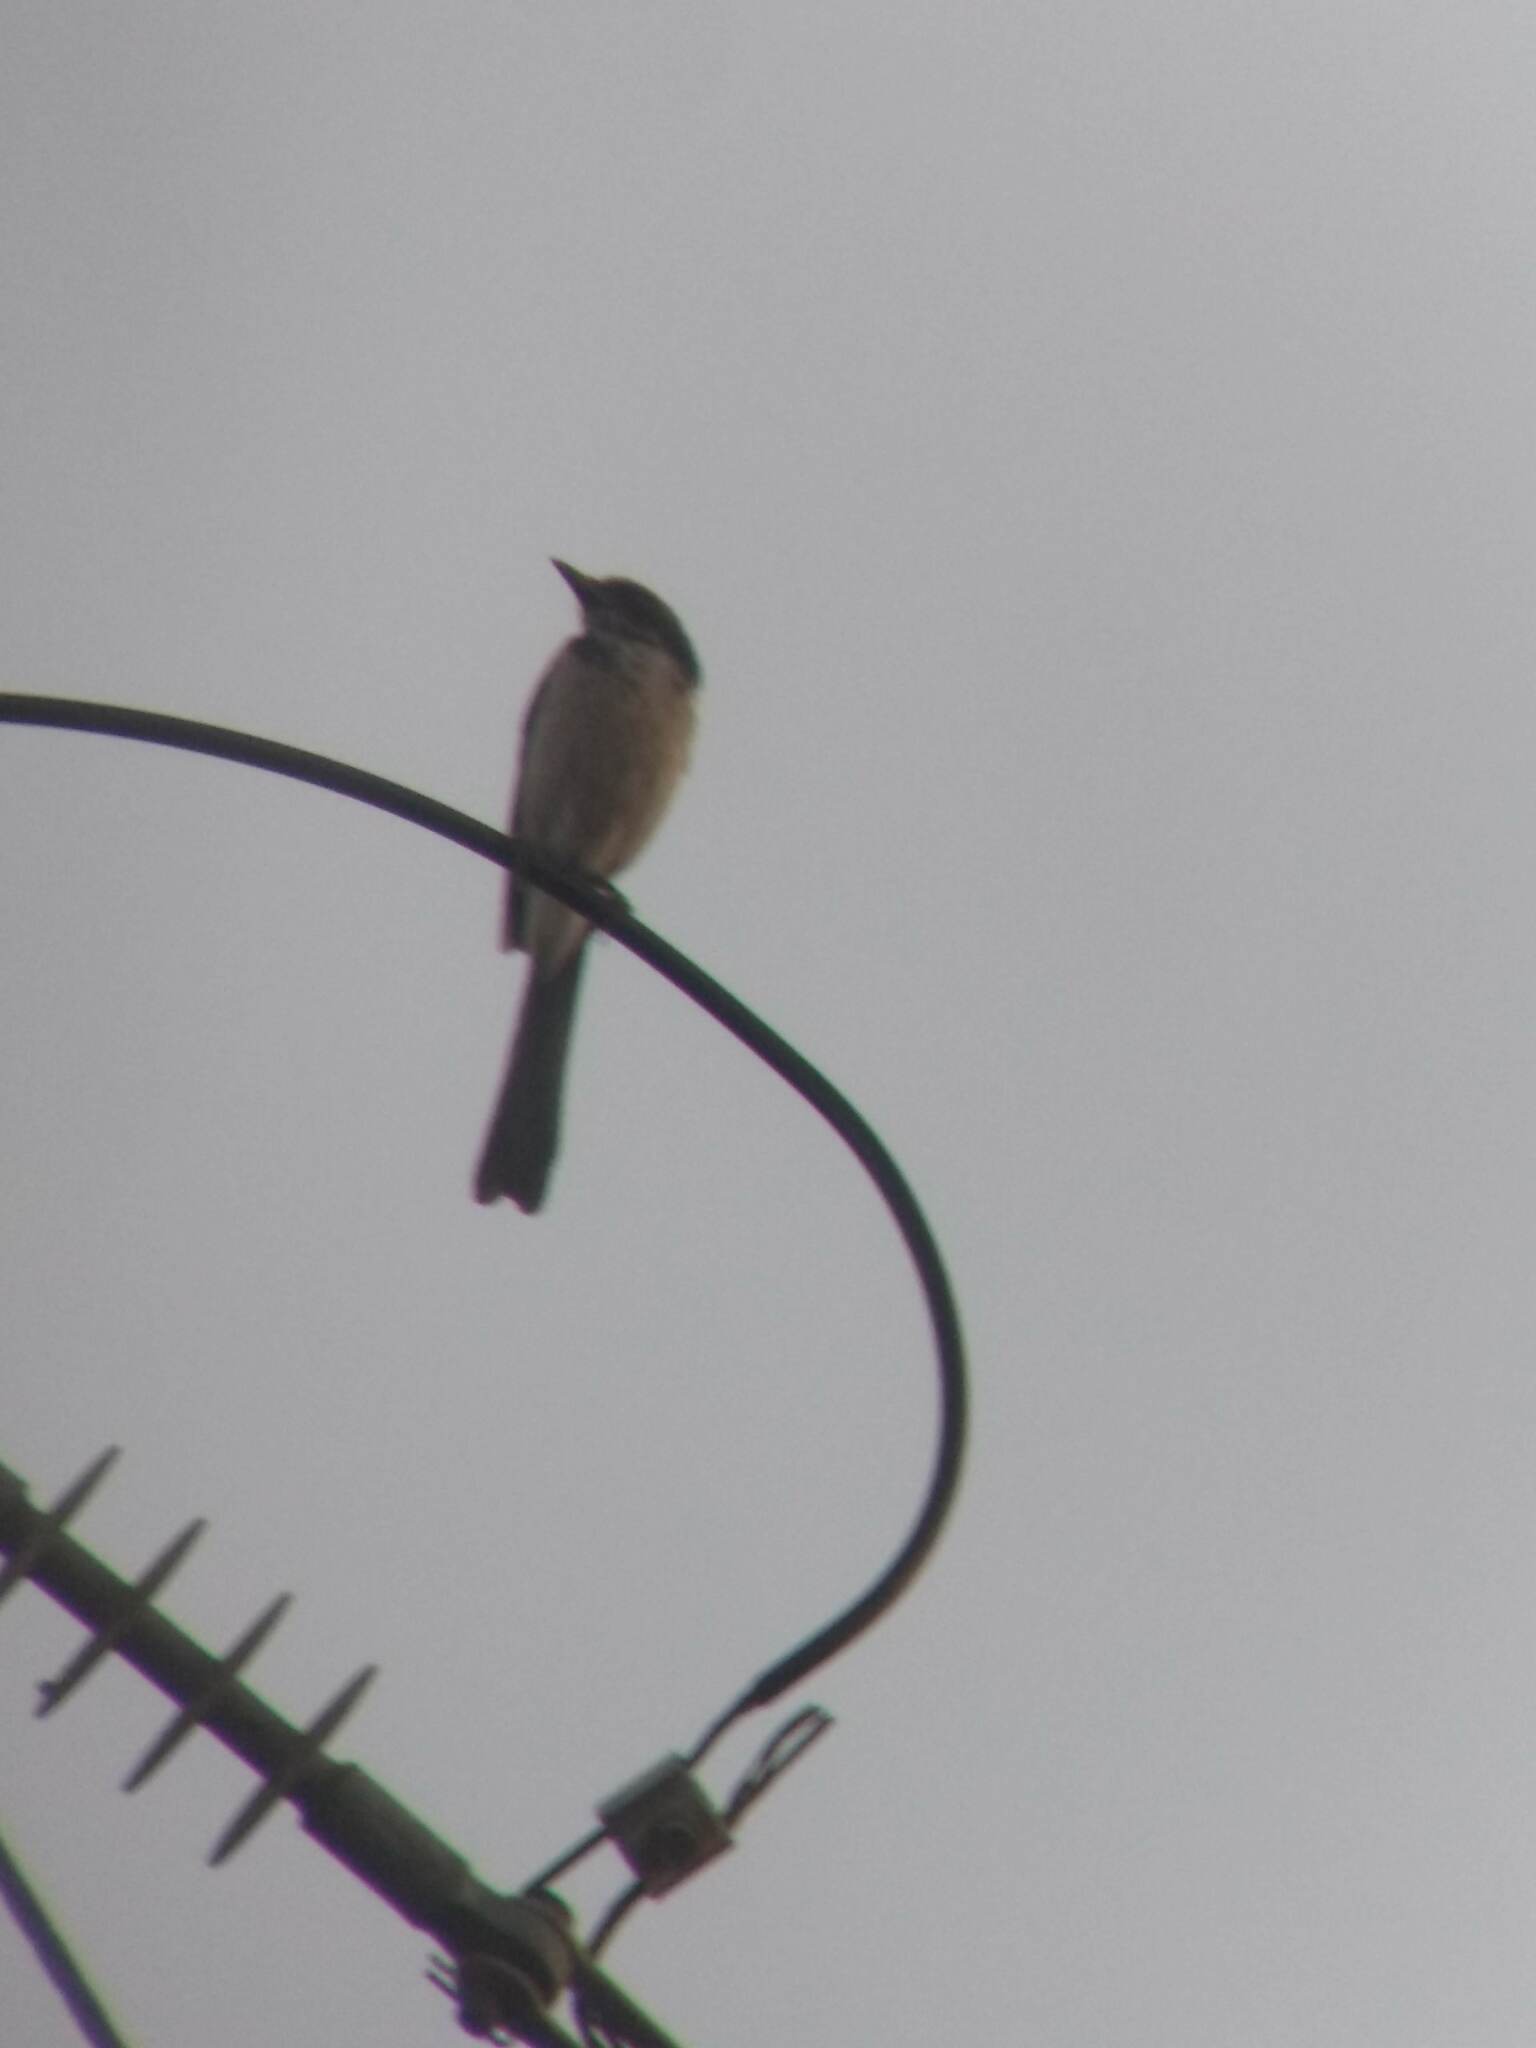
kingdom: Animalia
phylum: Chordata
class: Aves
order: Passeriformes
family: Corvidae
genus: Aphelocoma
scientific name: Aphelocoma californica
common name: California scrub-jay
